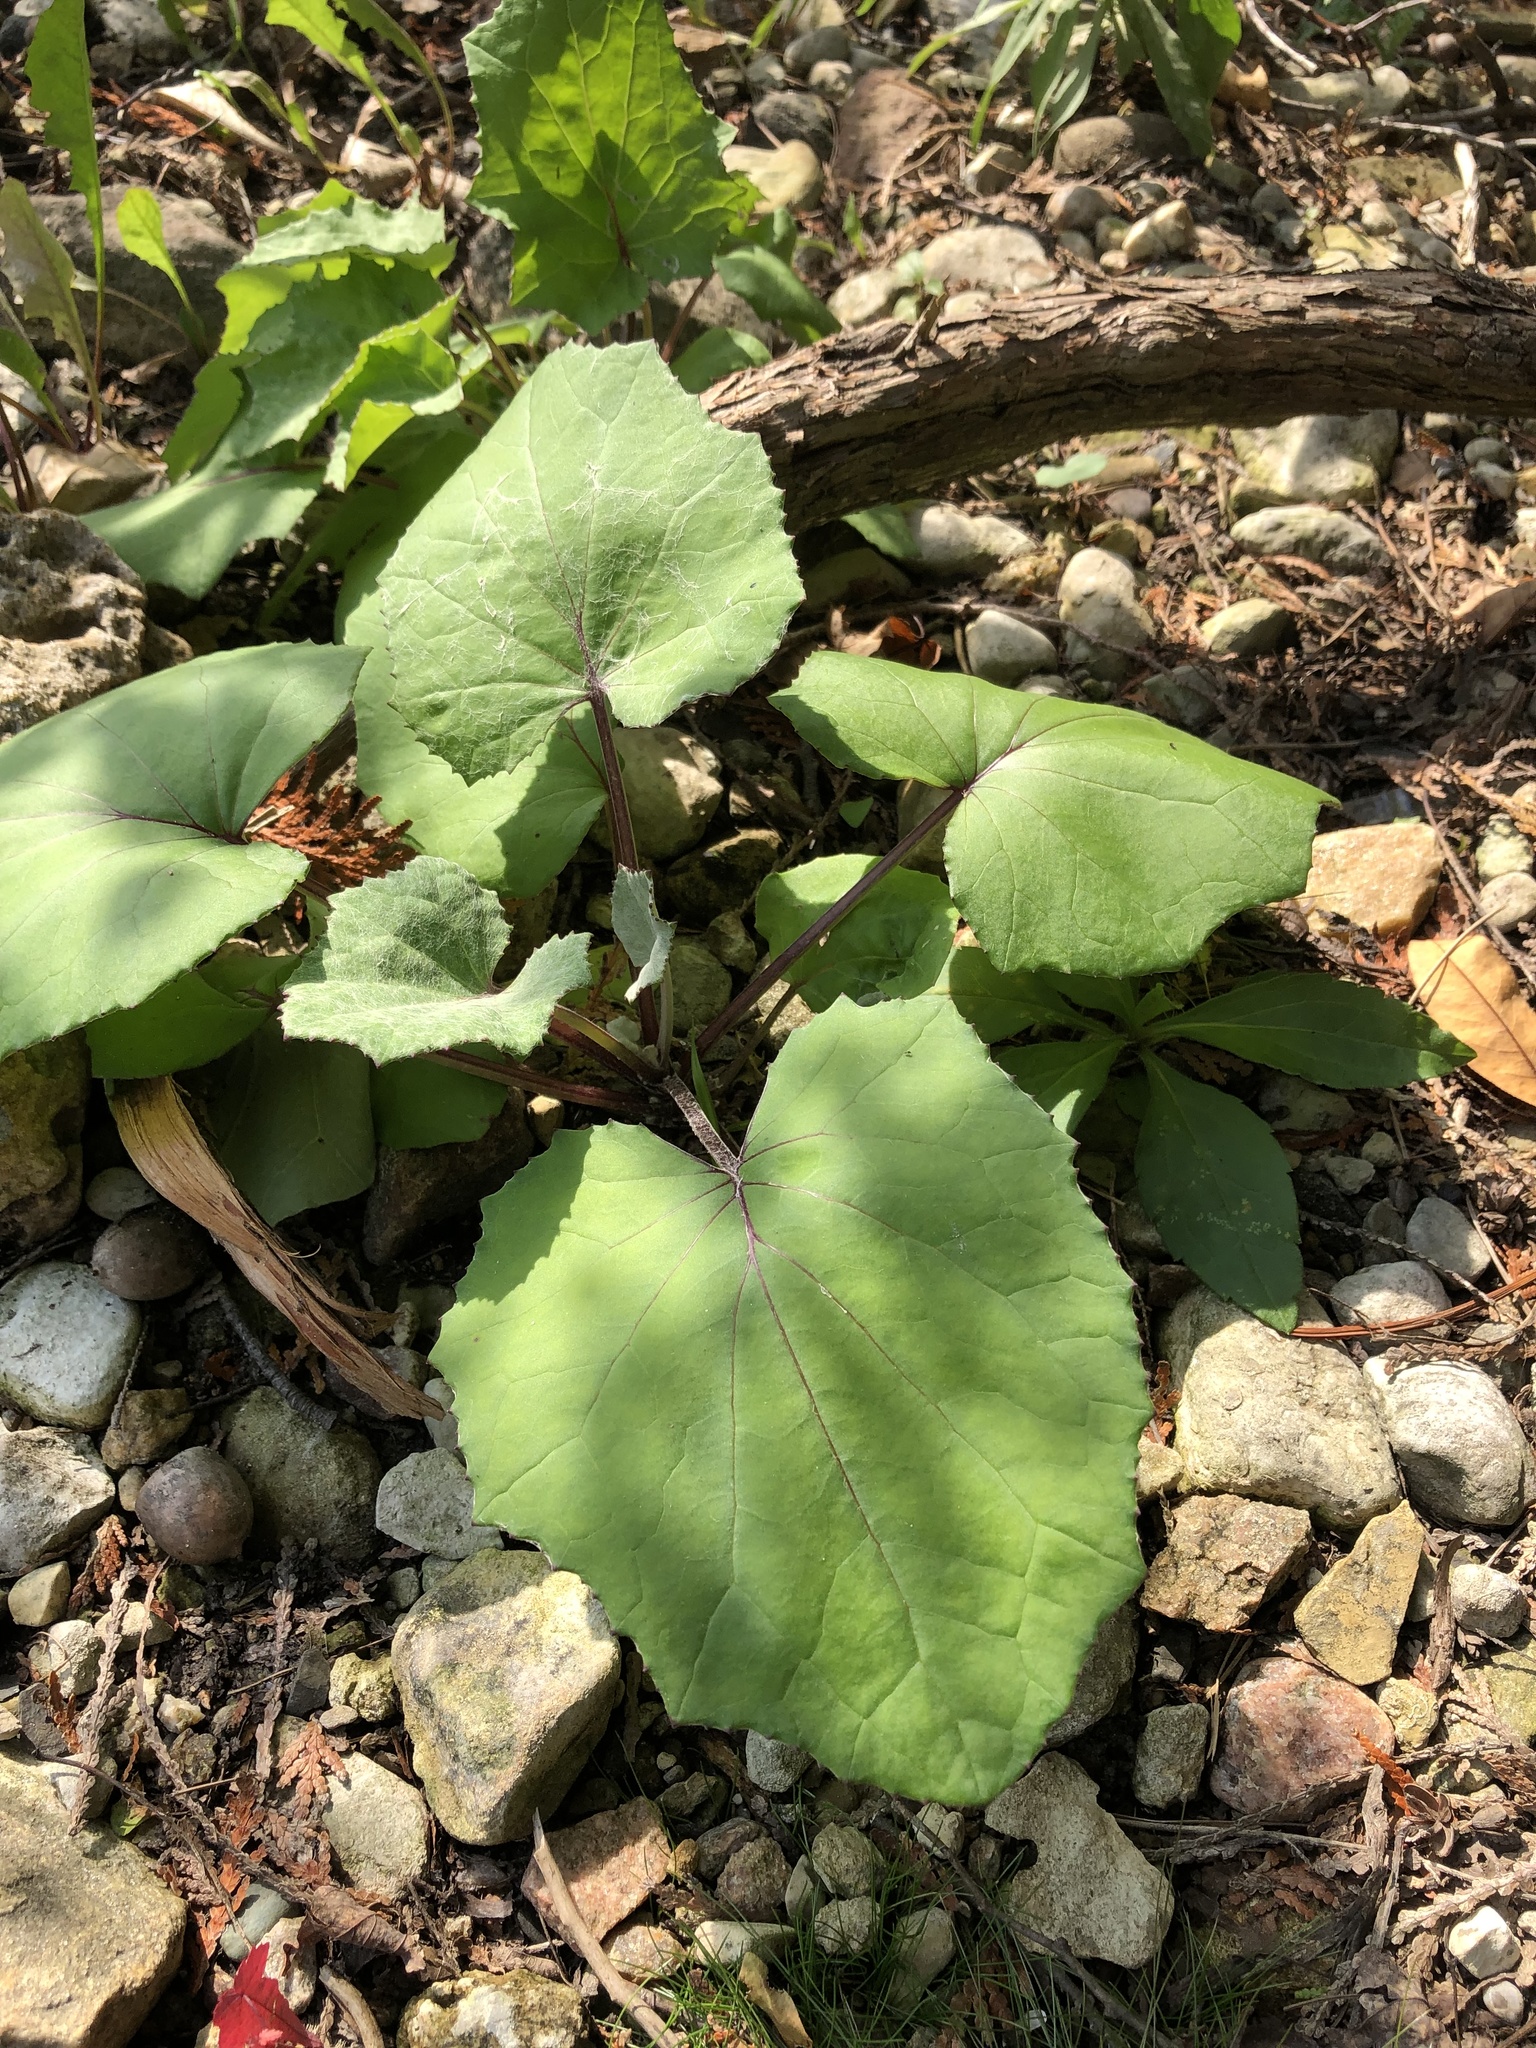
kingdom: Plantae
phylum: Tracheophyta
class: Magnoliopsida
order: Asterales
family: Asteraceae
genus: Tussilago
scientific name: Tussilago farfara
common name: Coltsfoot
